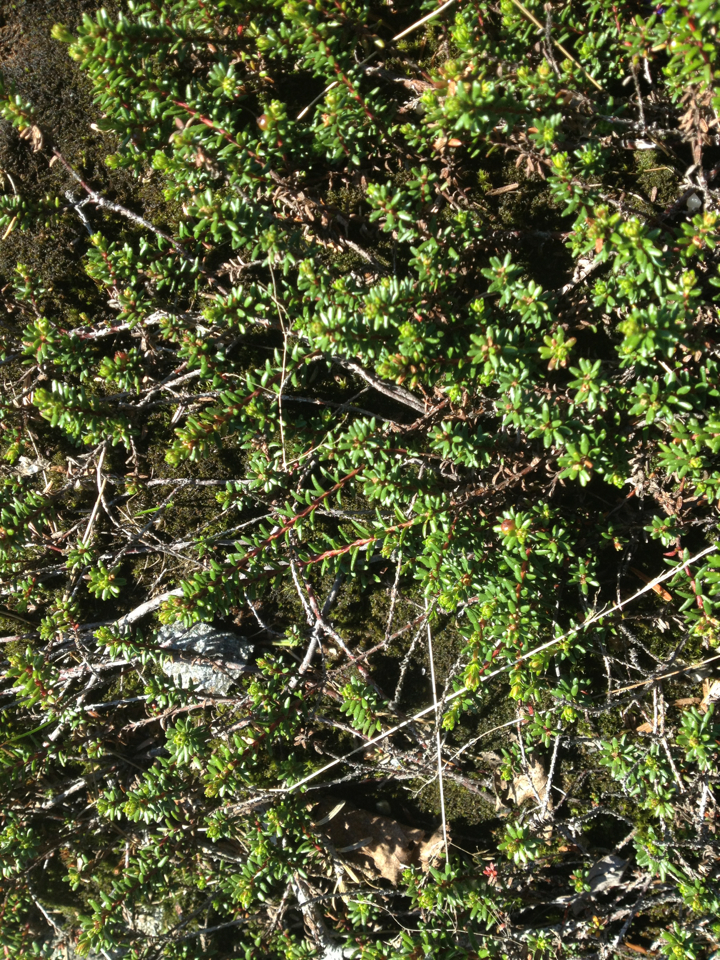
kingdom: Plantae
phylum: Tracheophyta
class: Magnoliopsida
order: Ericales
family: Ericaceae
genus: Empetrum
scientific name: Empetrum nigrum
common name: Black crowberry
